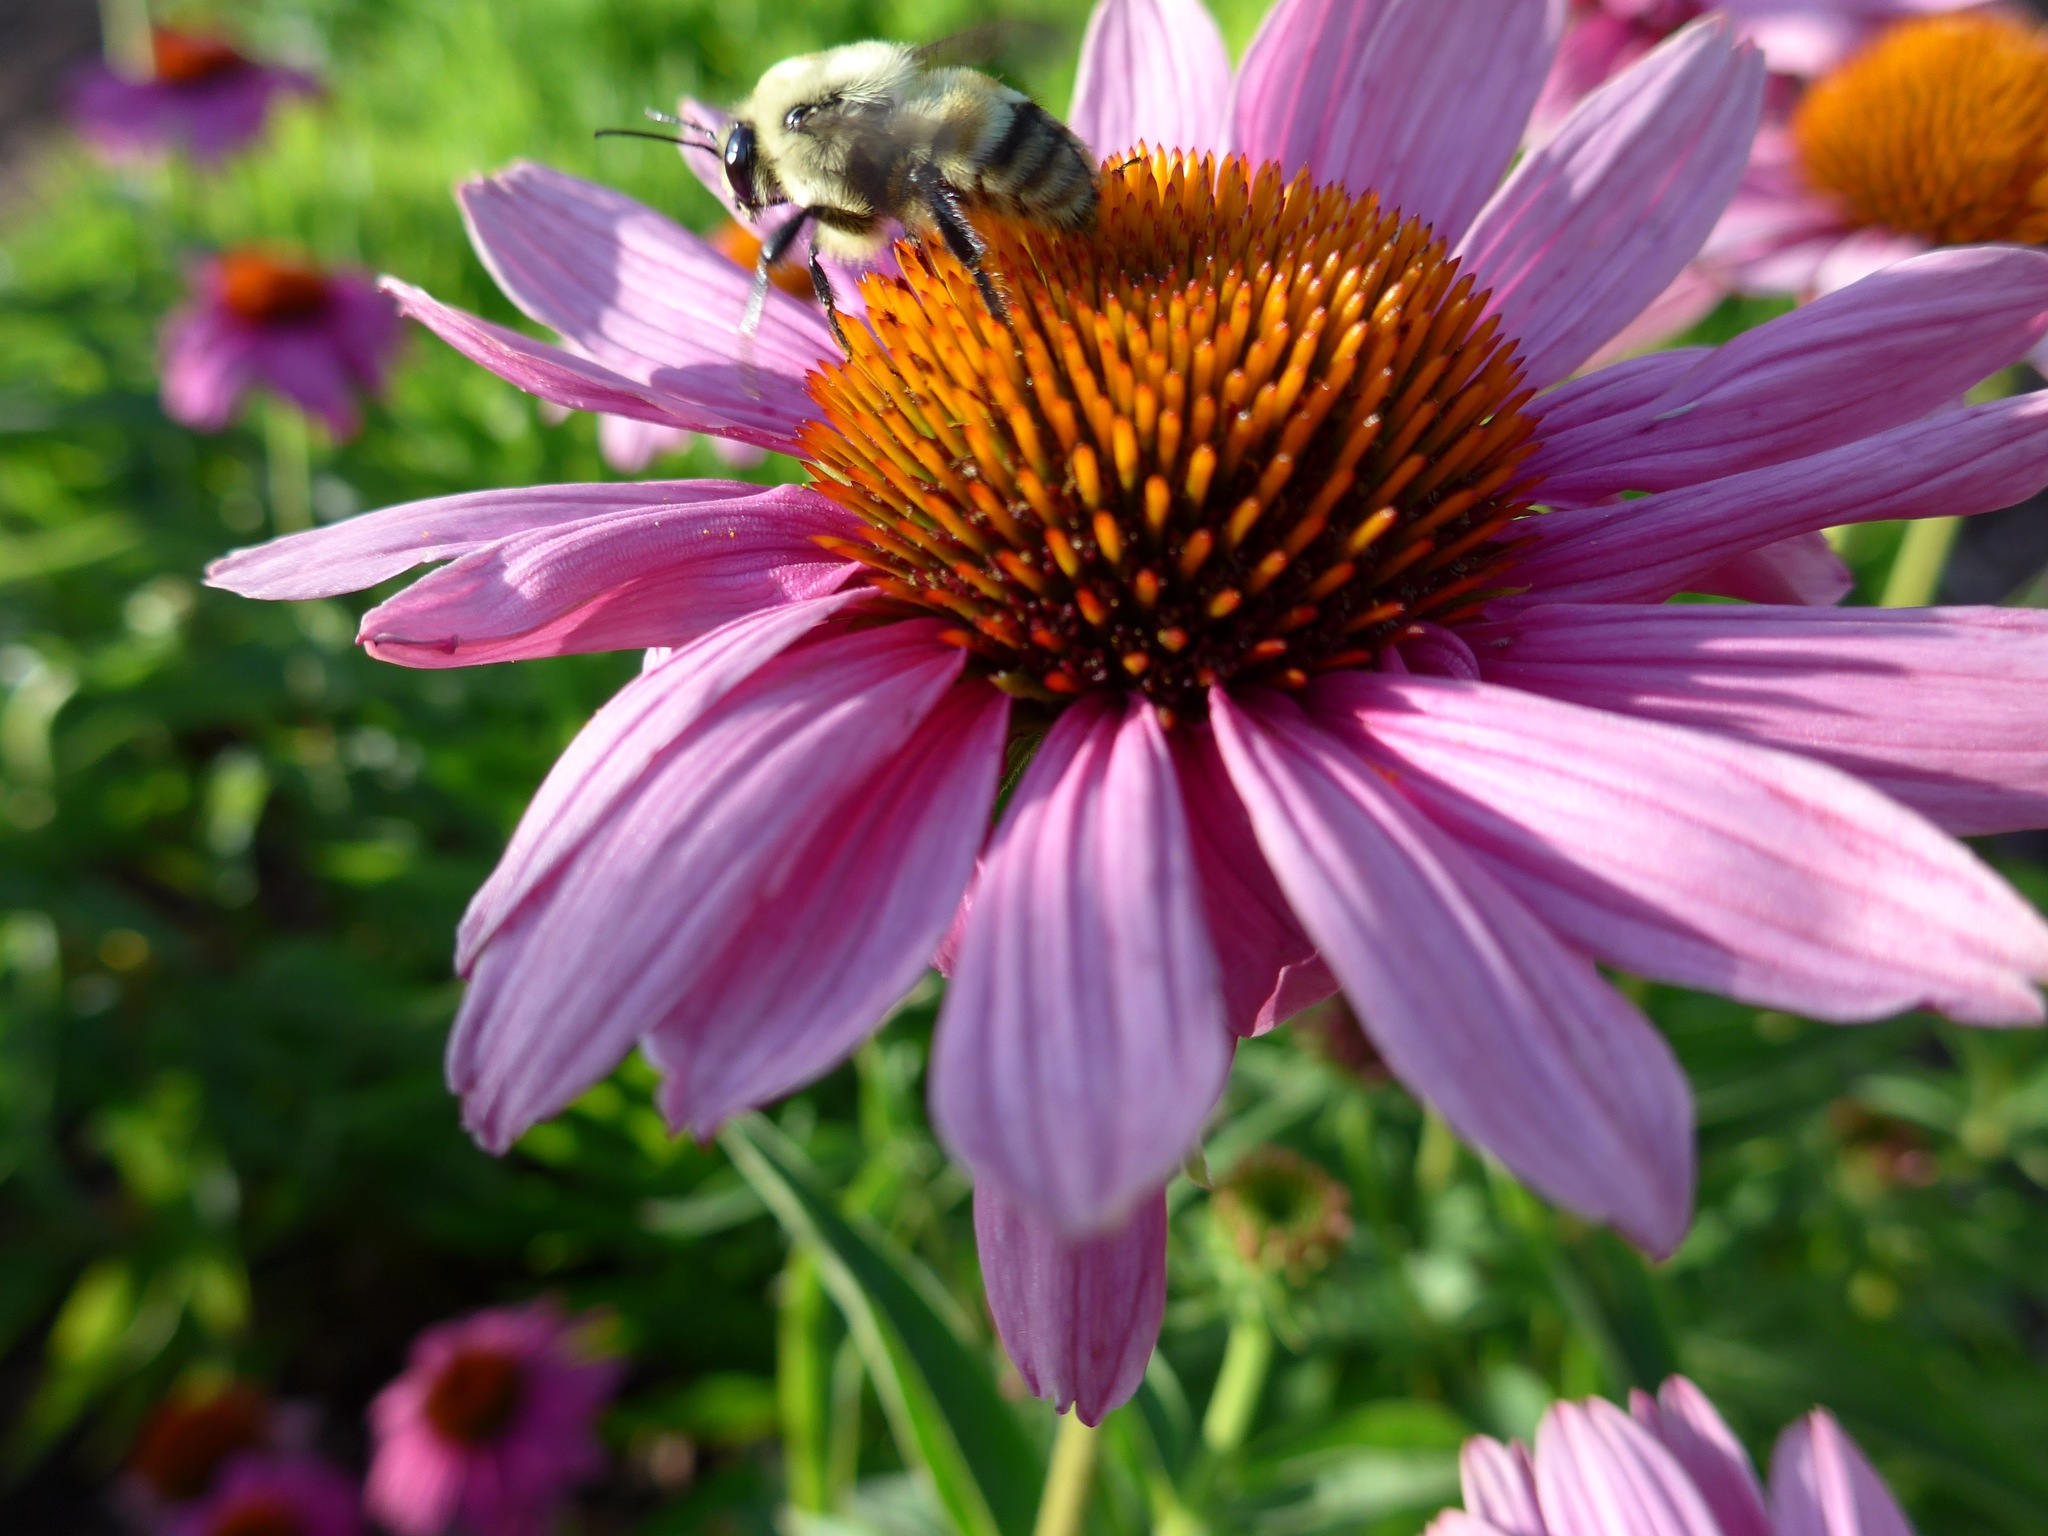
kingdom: Animalia
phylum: Arthropoda
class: Insecta
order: Hymenoptera
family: Apidae
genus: Bombus
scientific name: Bombus griseocollis
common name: Brown-belted bumble bee
